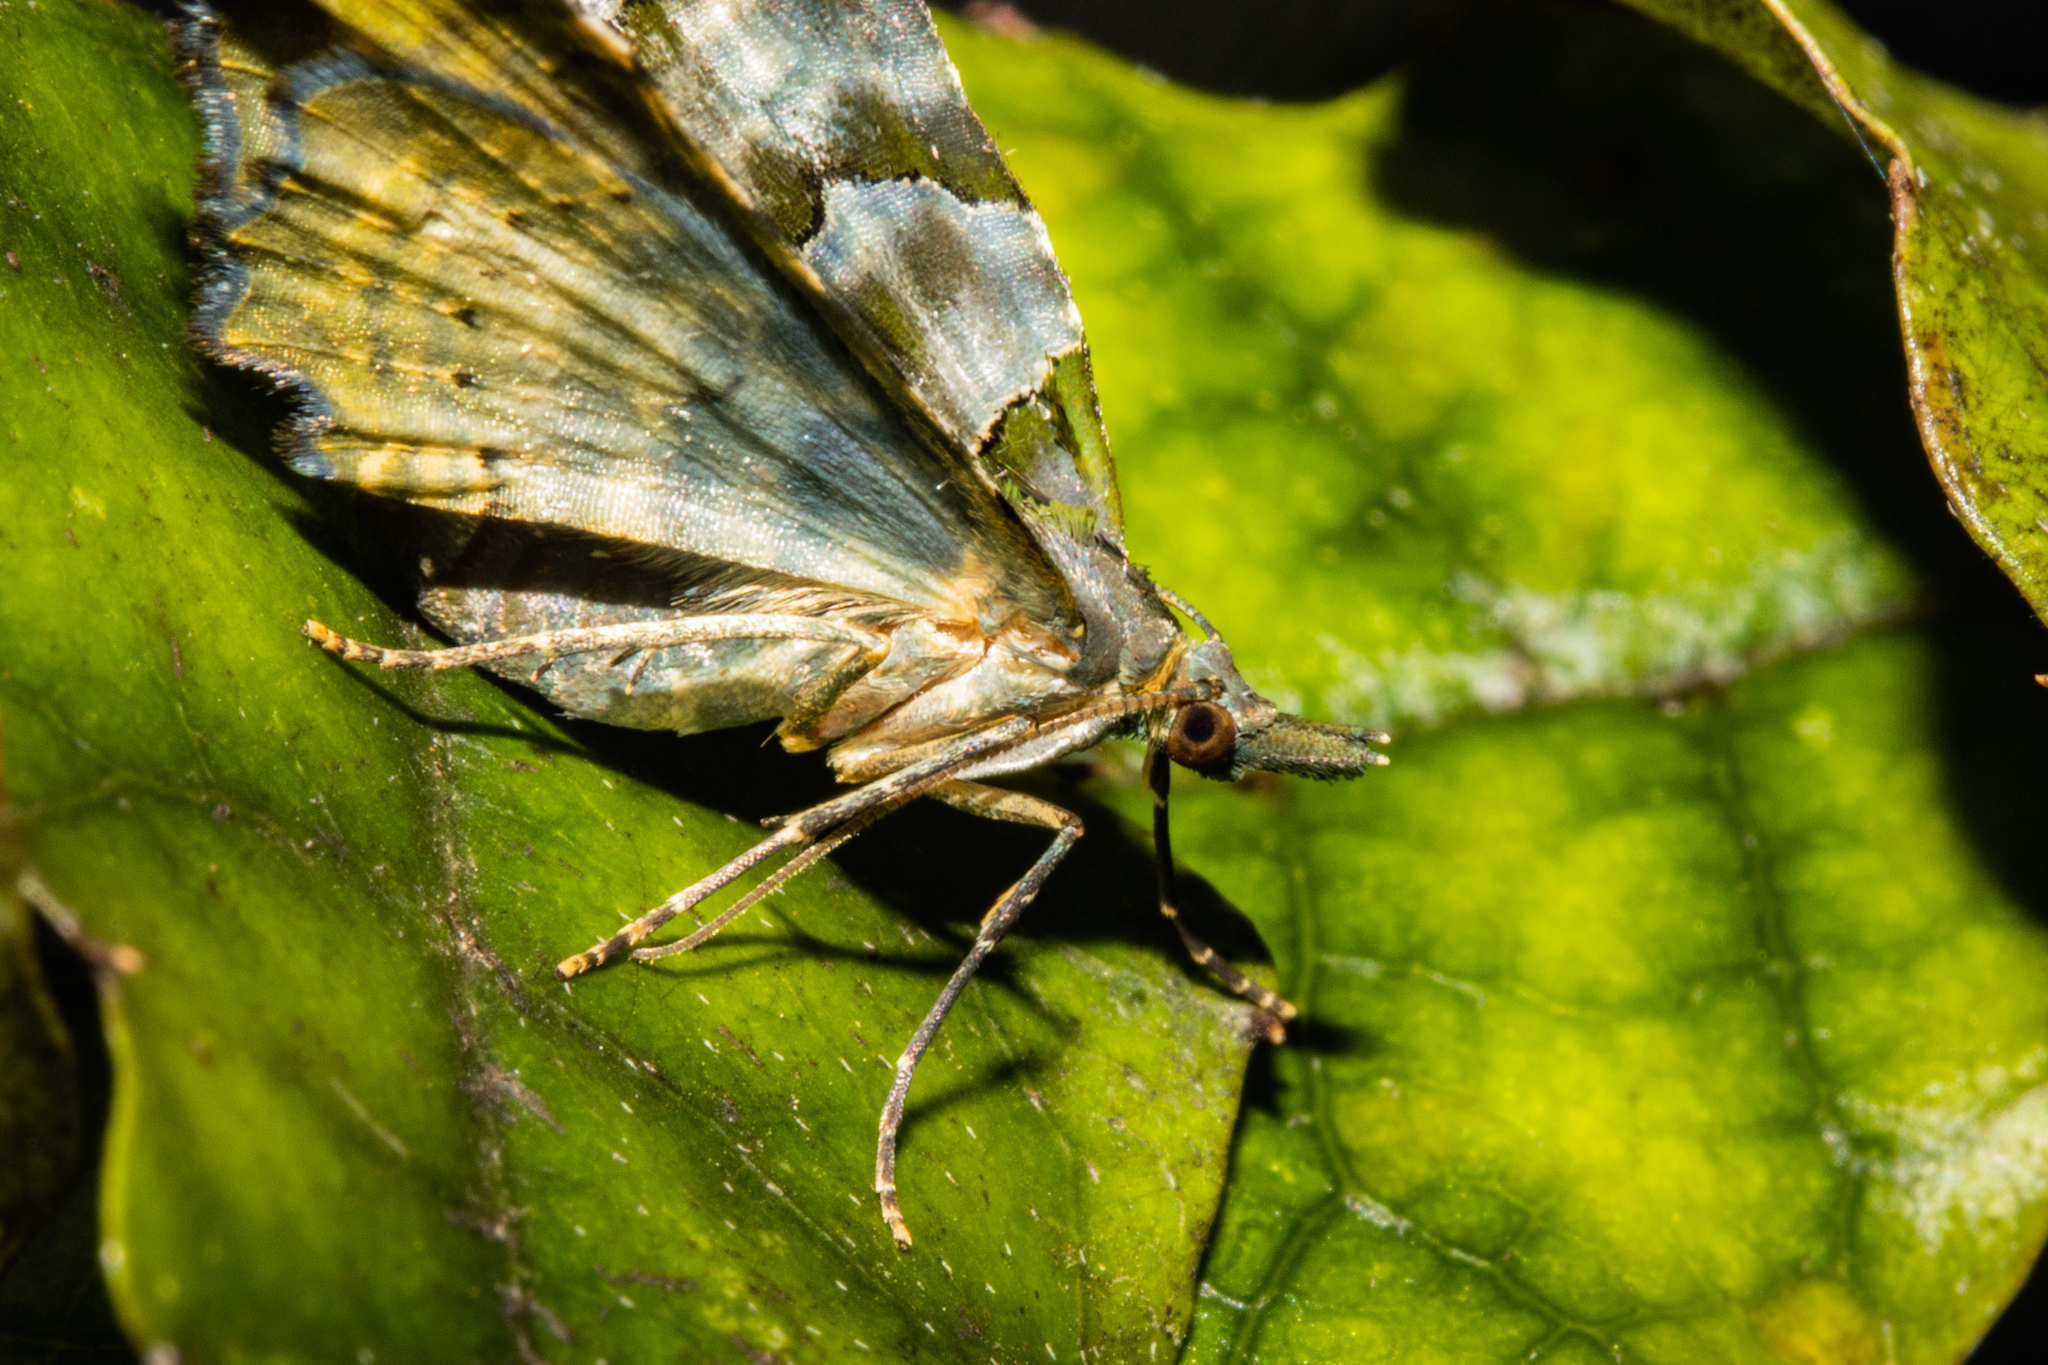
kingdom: Animalia
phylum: Arthropoda
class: Insecta
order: Lepidoptera
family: Geometridae
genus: Elvia
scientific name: Elvia glaucata
